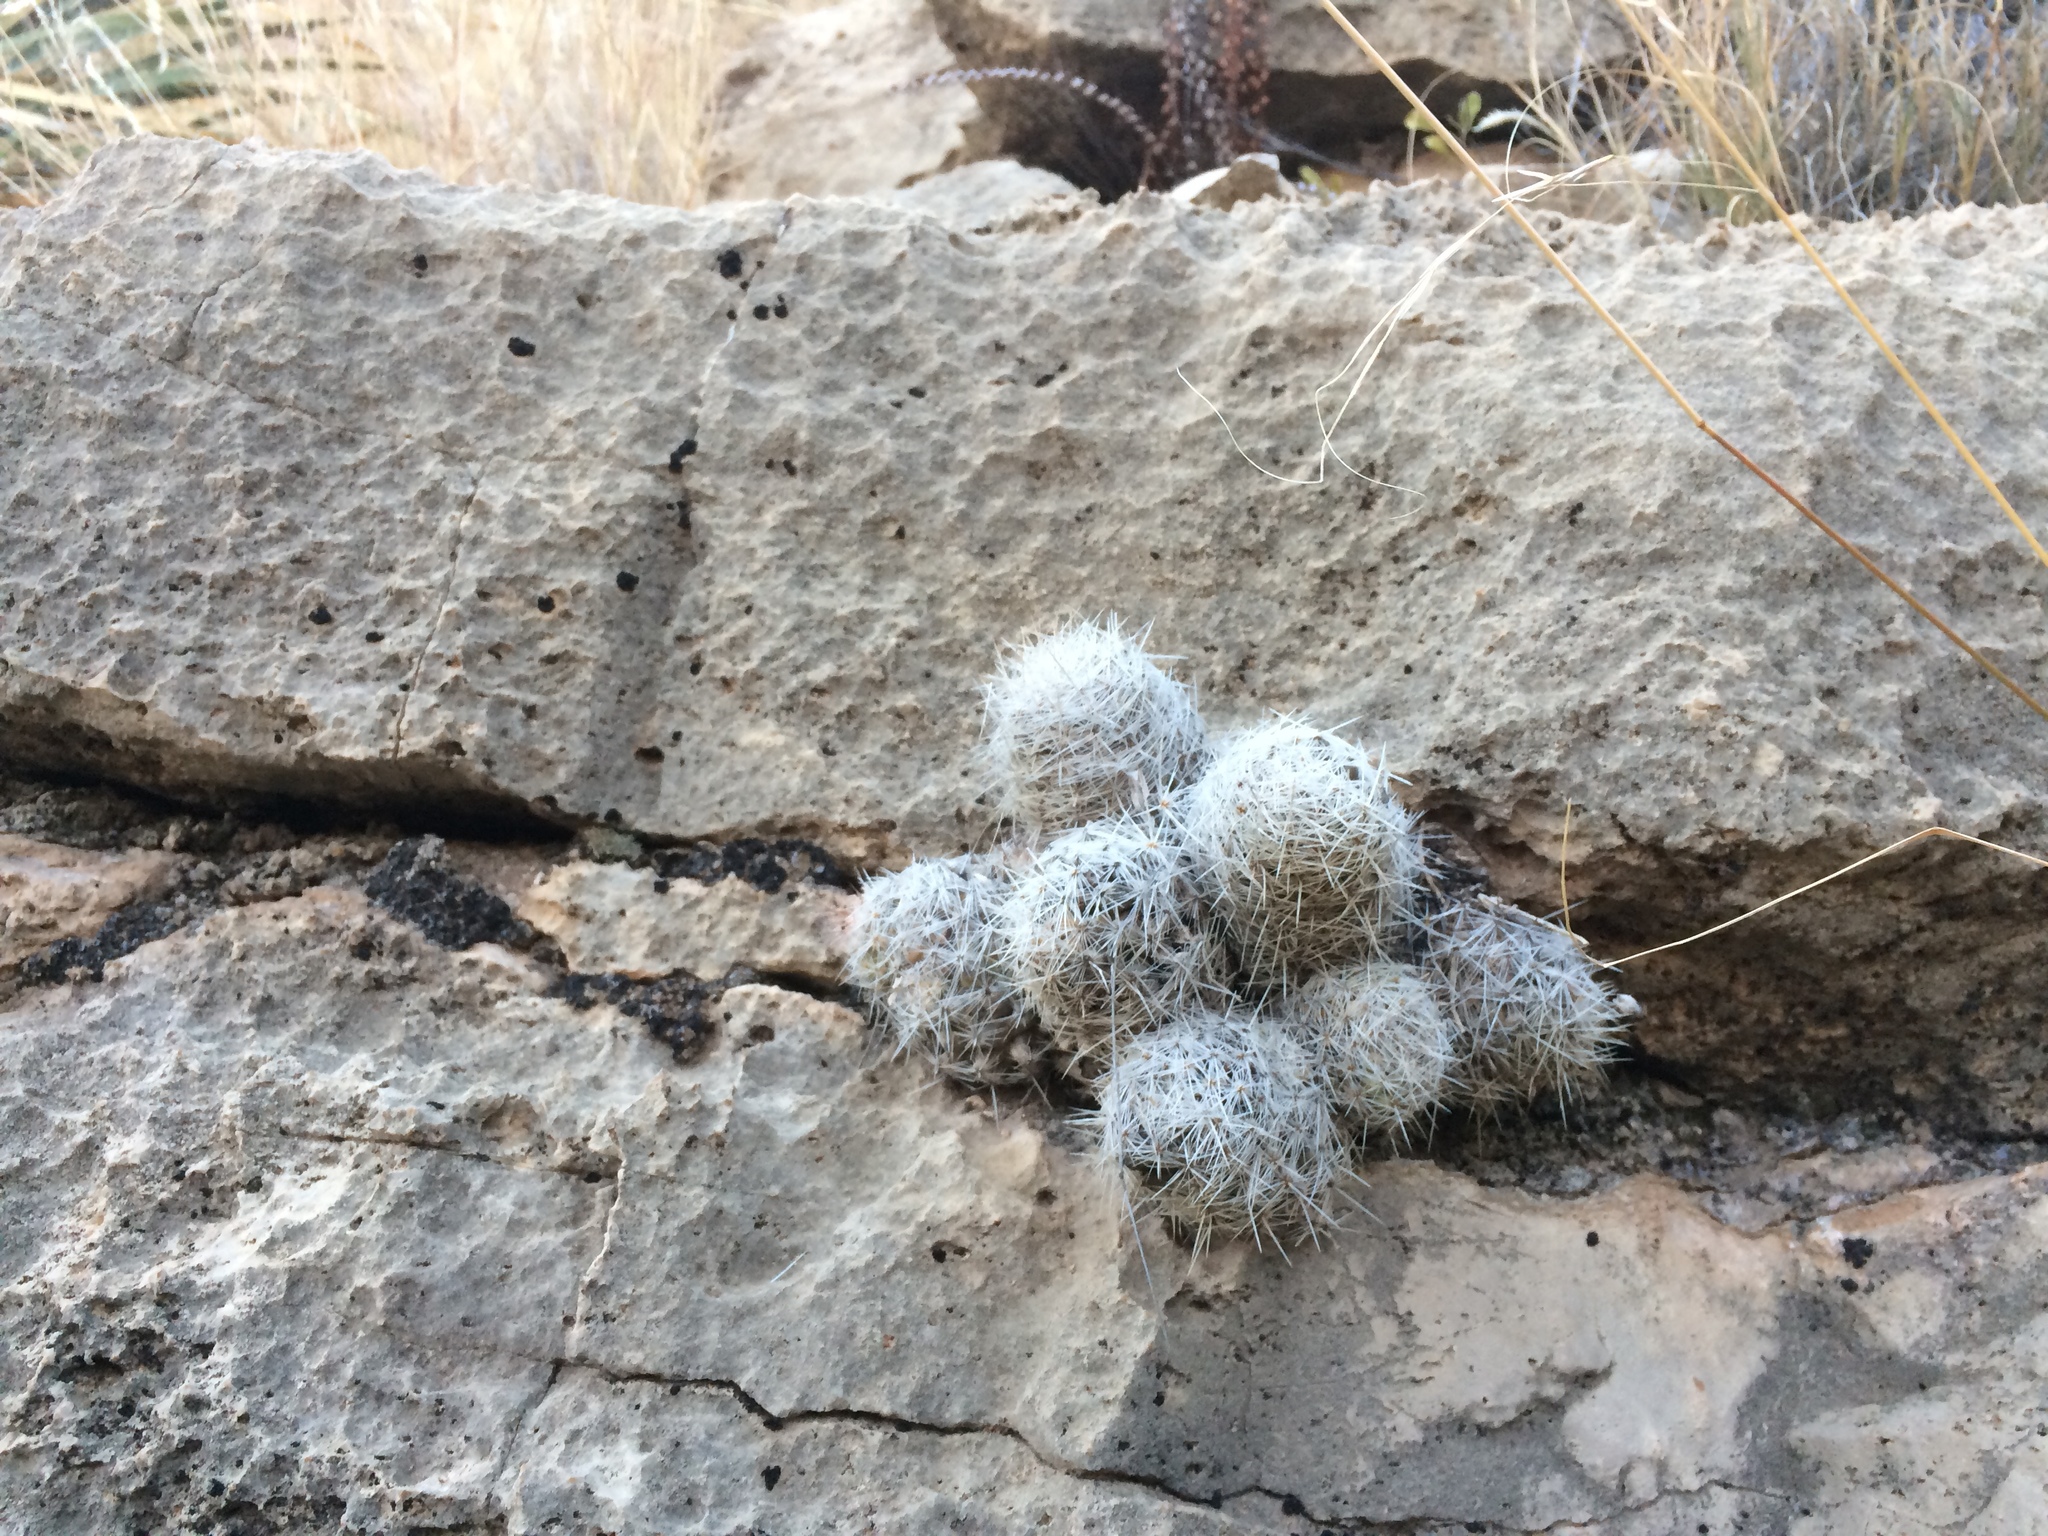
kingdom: Plantae
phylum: Tracheophyta
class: Magnoliopsida
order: Caryophyllales
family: Cactaceae
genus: Pelecyphora
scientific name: Pelecyphora tuberculosa
